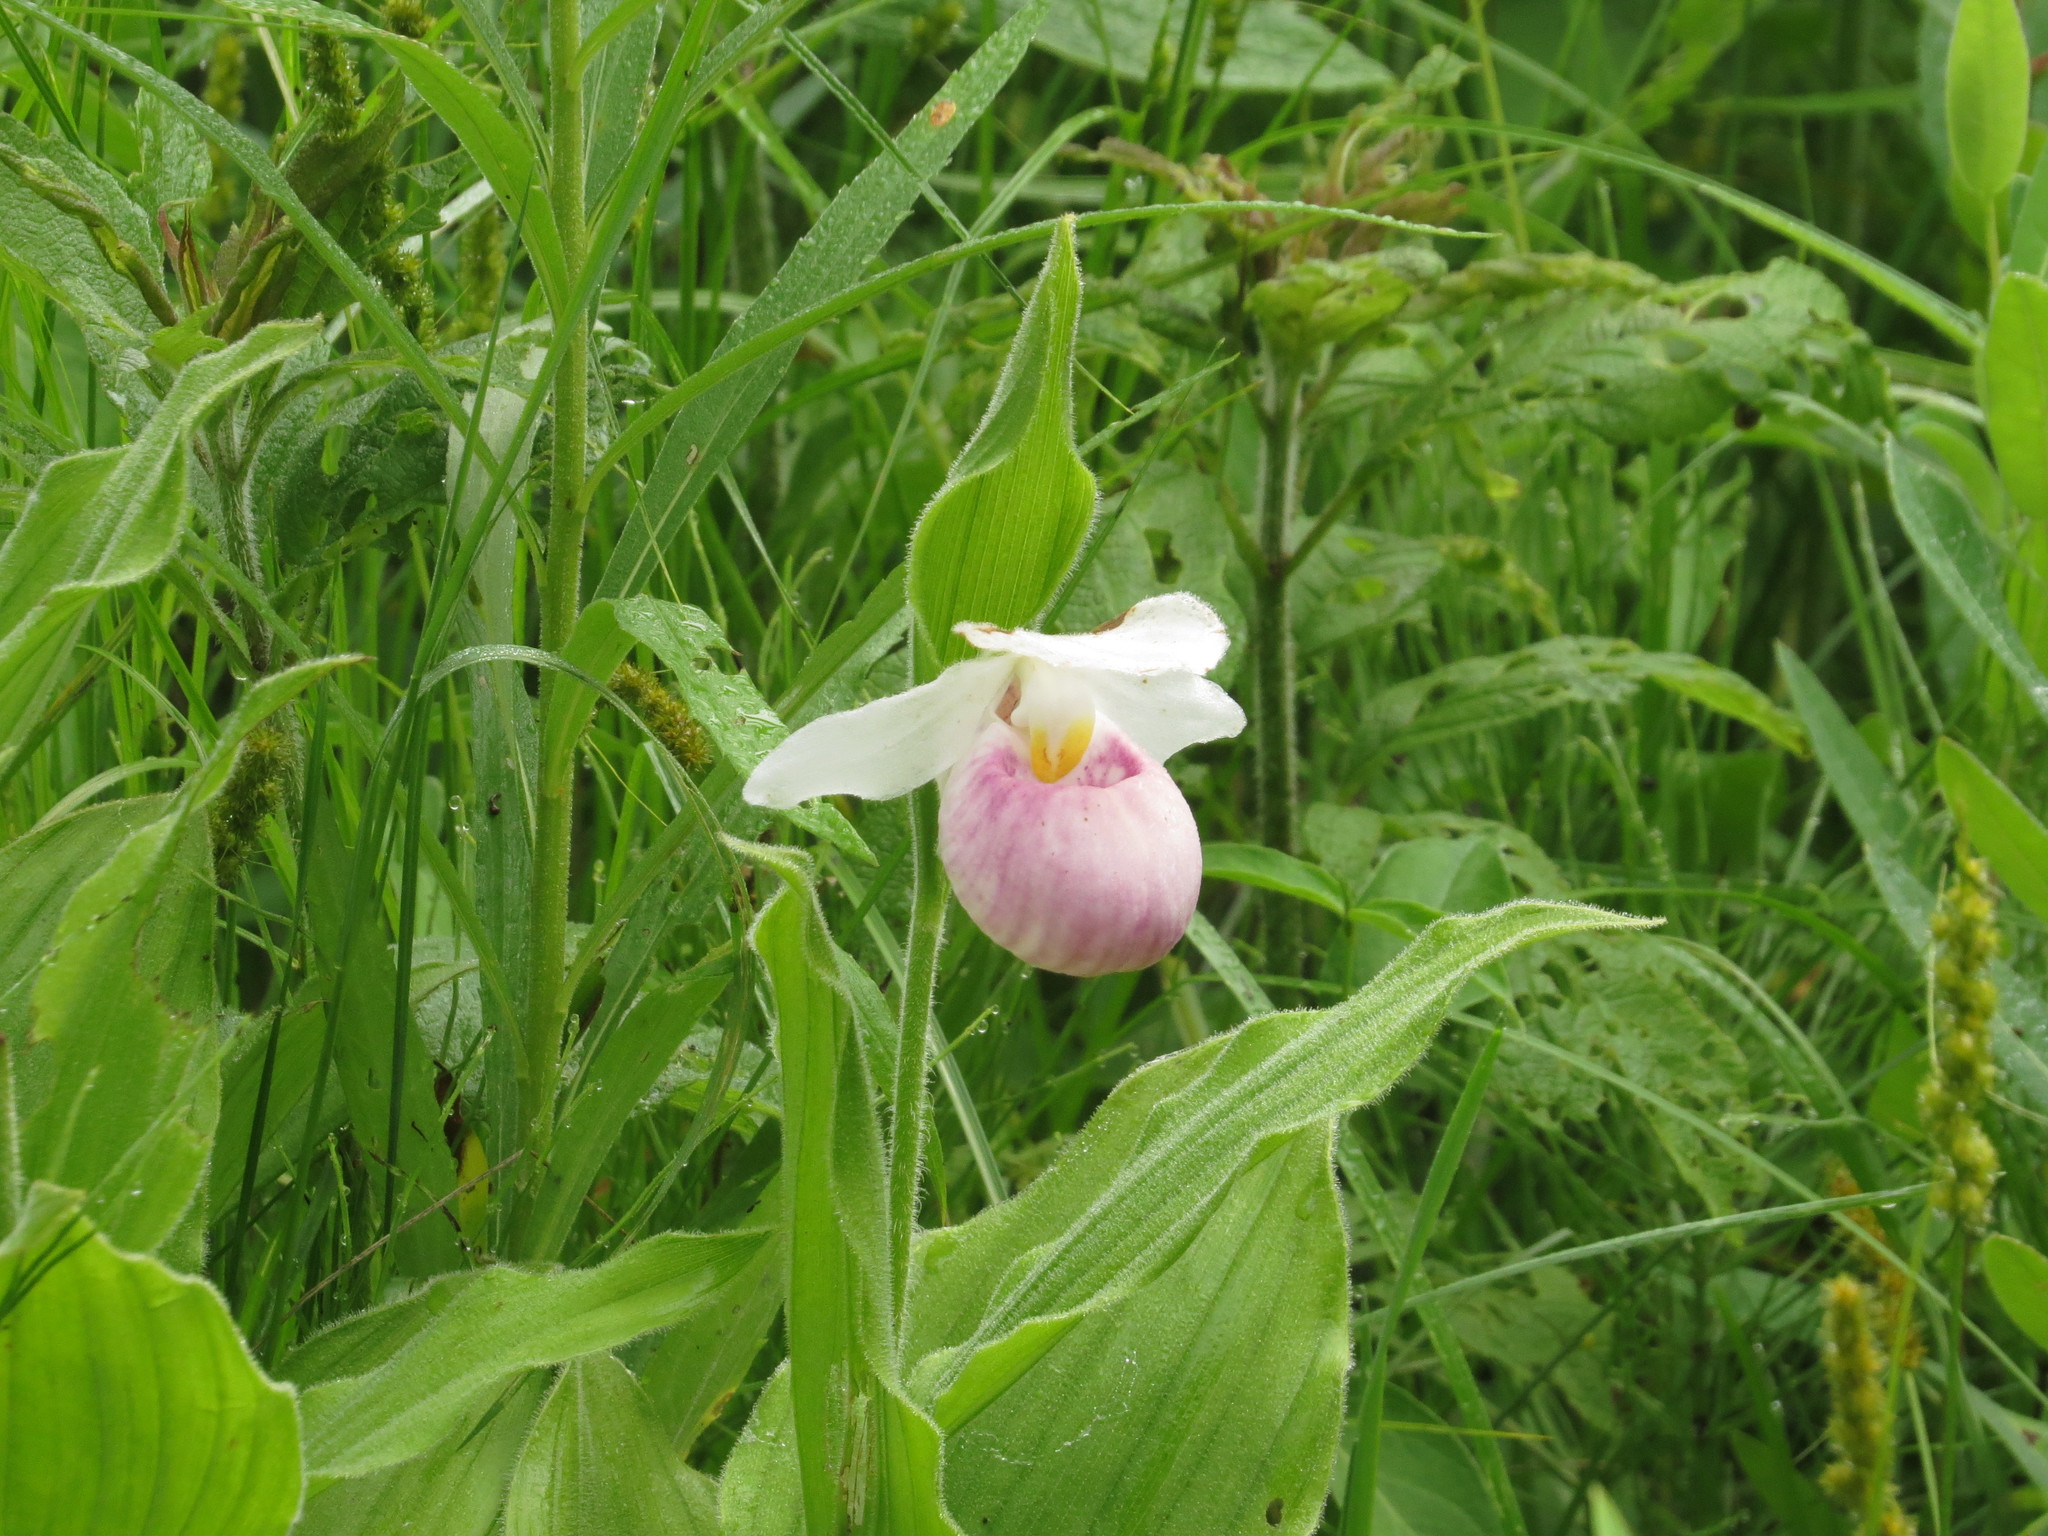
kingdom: Plantae
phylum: Tracheophyta
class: Liliopsida
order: Asparagales
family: Orchidaceae
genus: Cypripedium
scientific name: Cypripedium reginae
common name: Queen lady's-slipper
